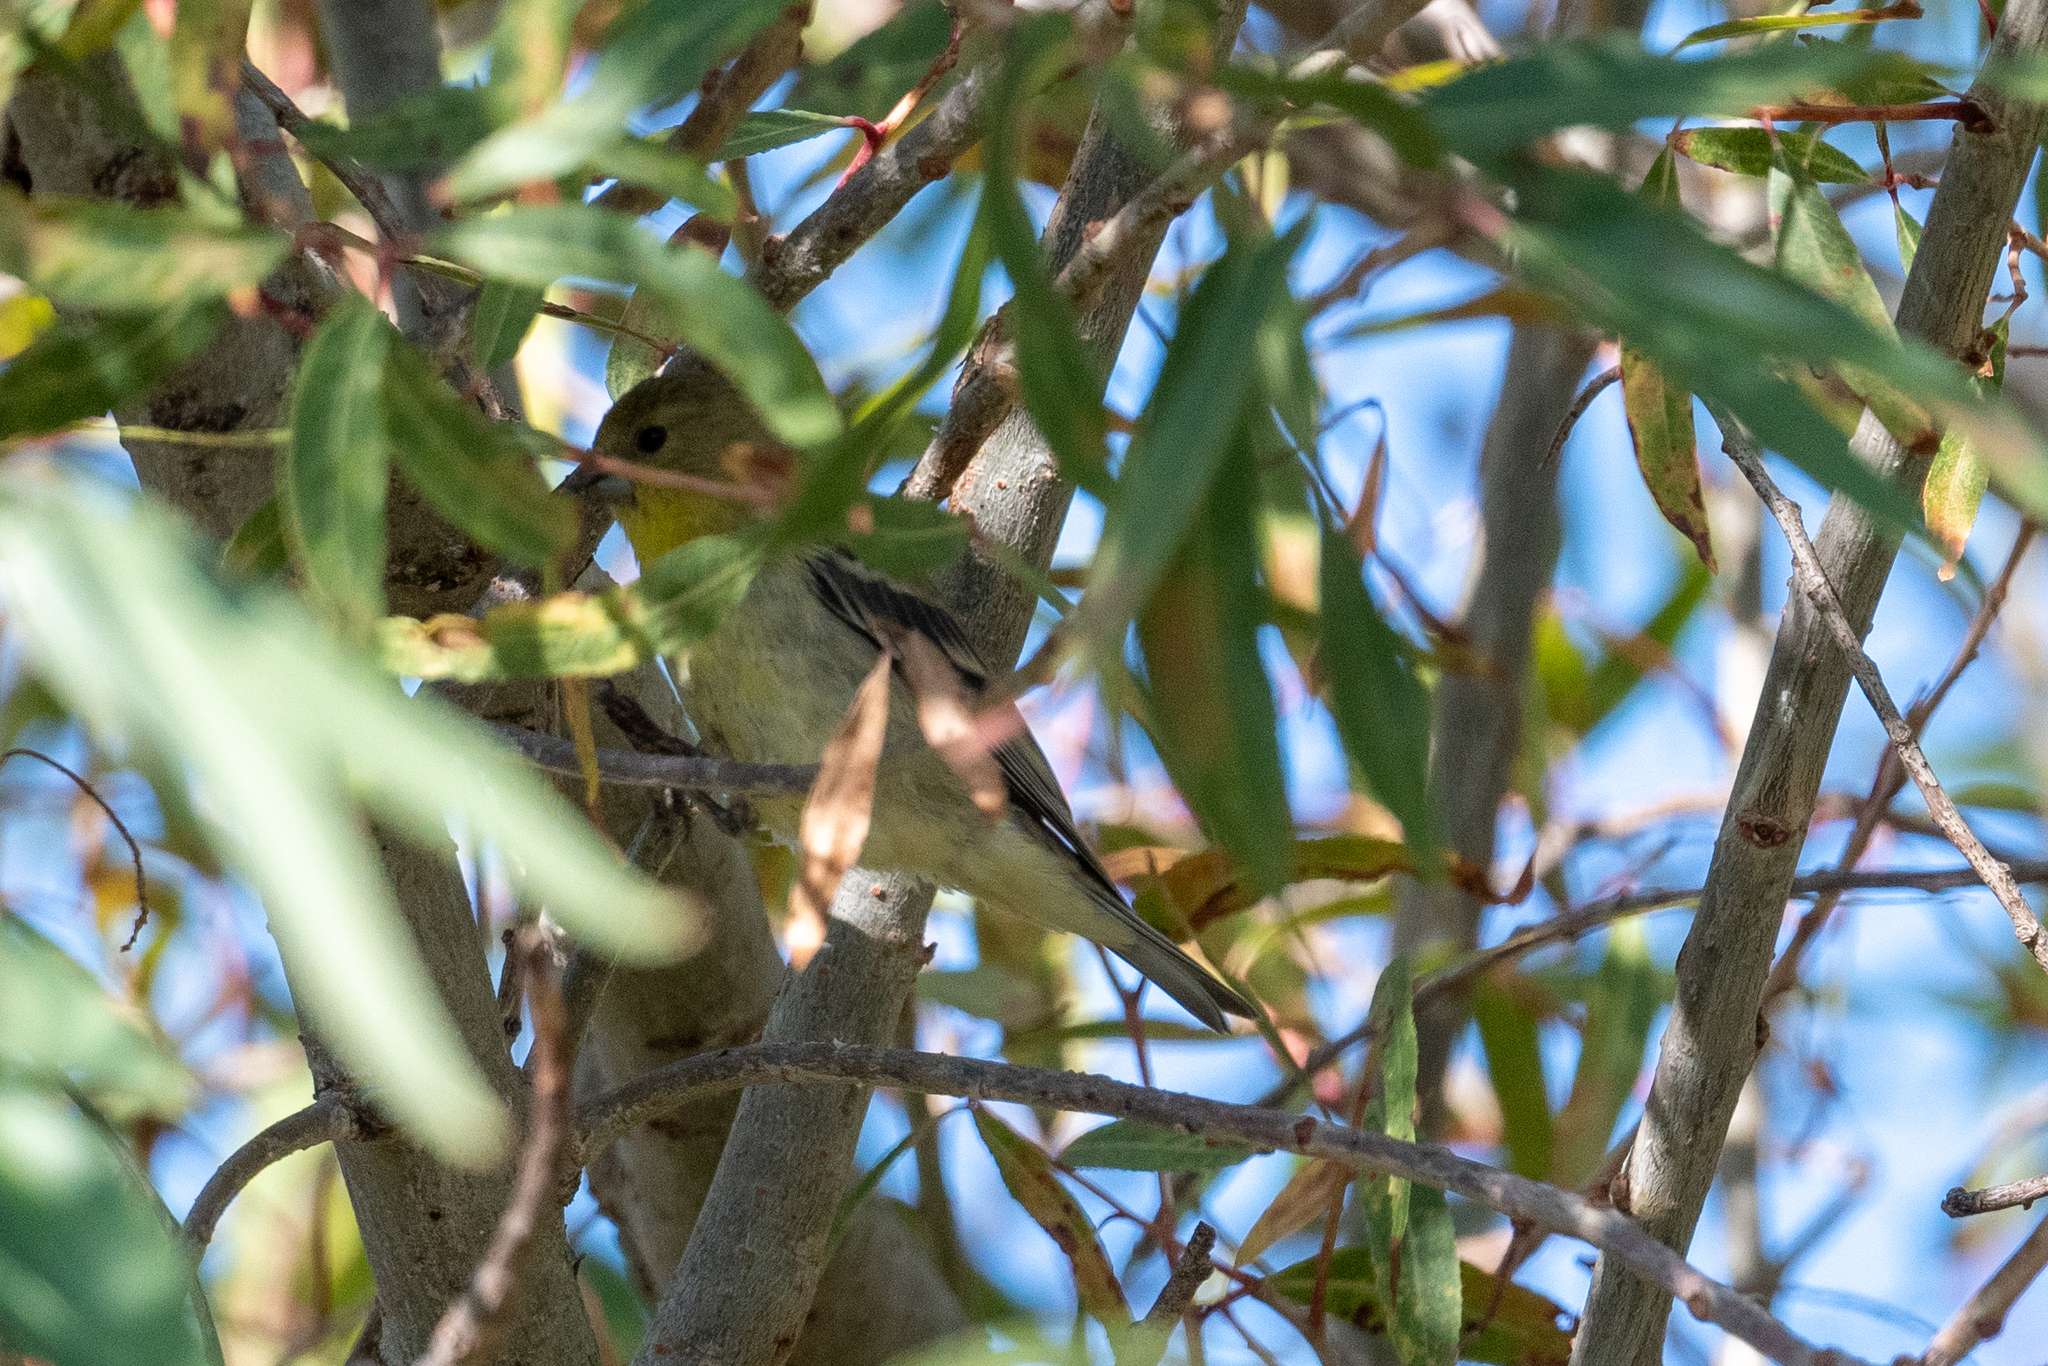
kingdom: Animalia
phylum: Chordata
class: Aves
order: Passeriformes
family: Fringillidae
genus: Spinus
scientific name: Spinus psaltria
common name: Lesser goldfinch
